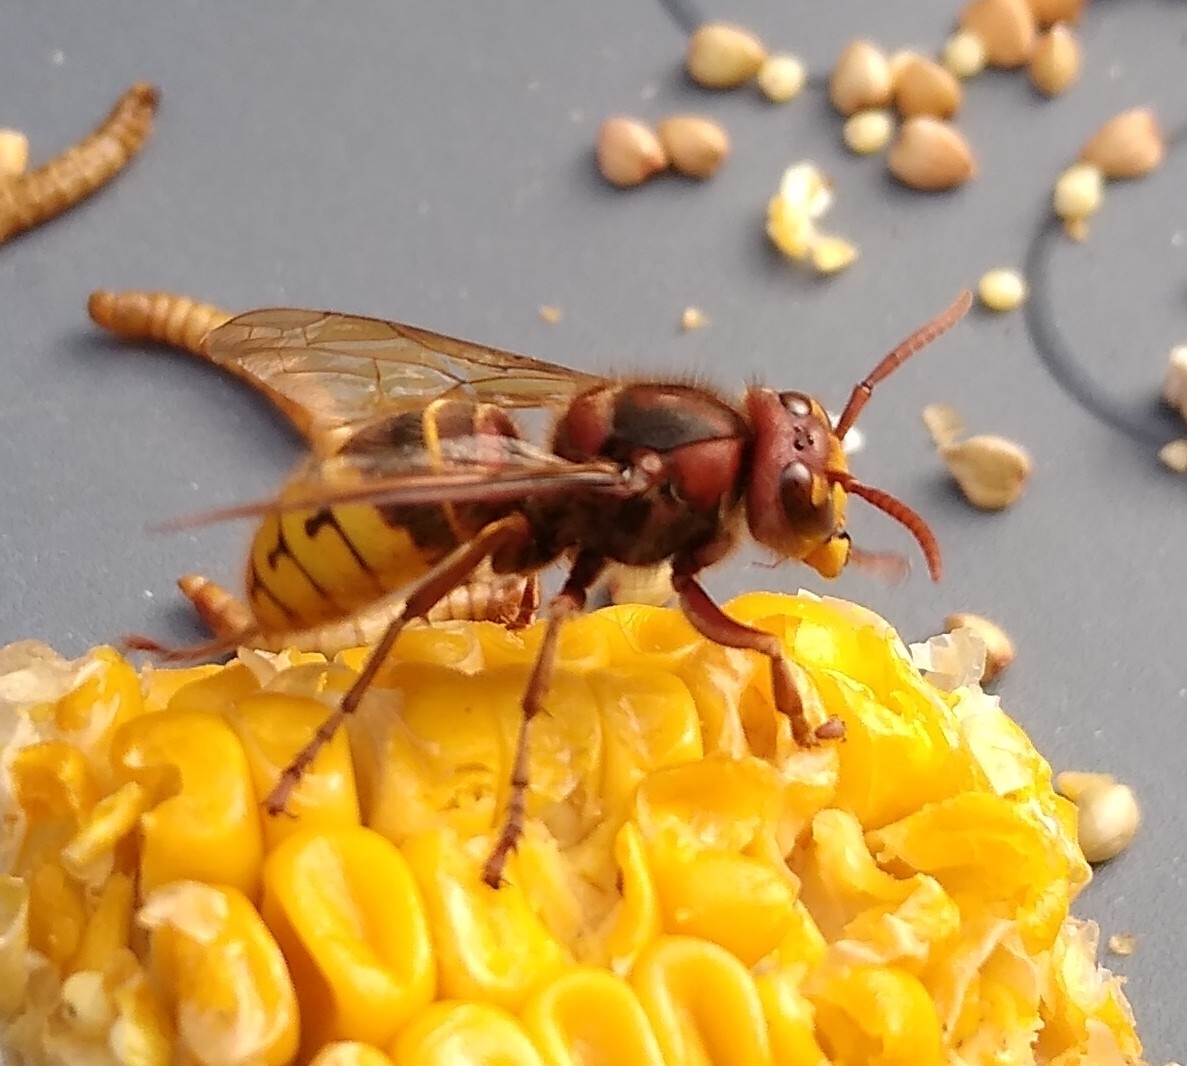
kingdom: Animalia
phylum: Arthropoda
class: Insecta
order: Hymenoptera
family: Vespidae
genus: Vespa
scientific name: Vespa crabro
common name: Hornet
